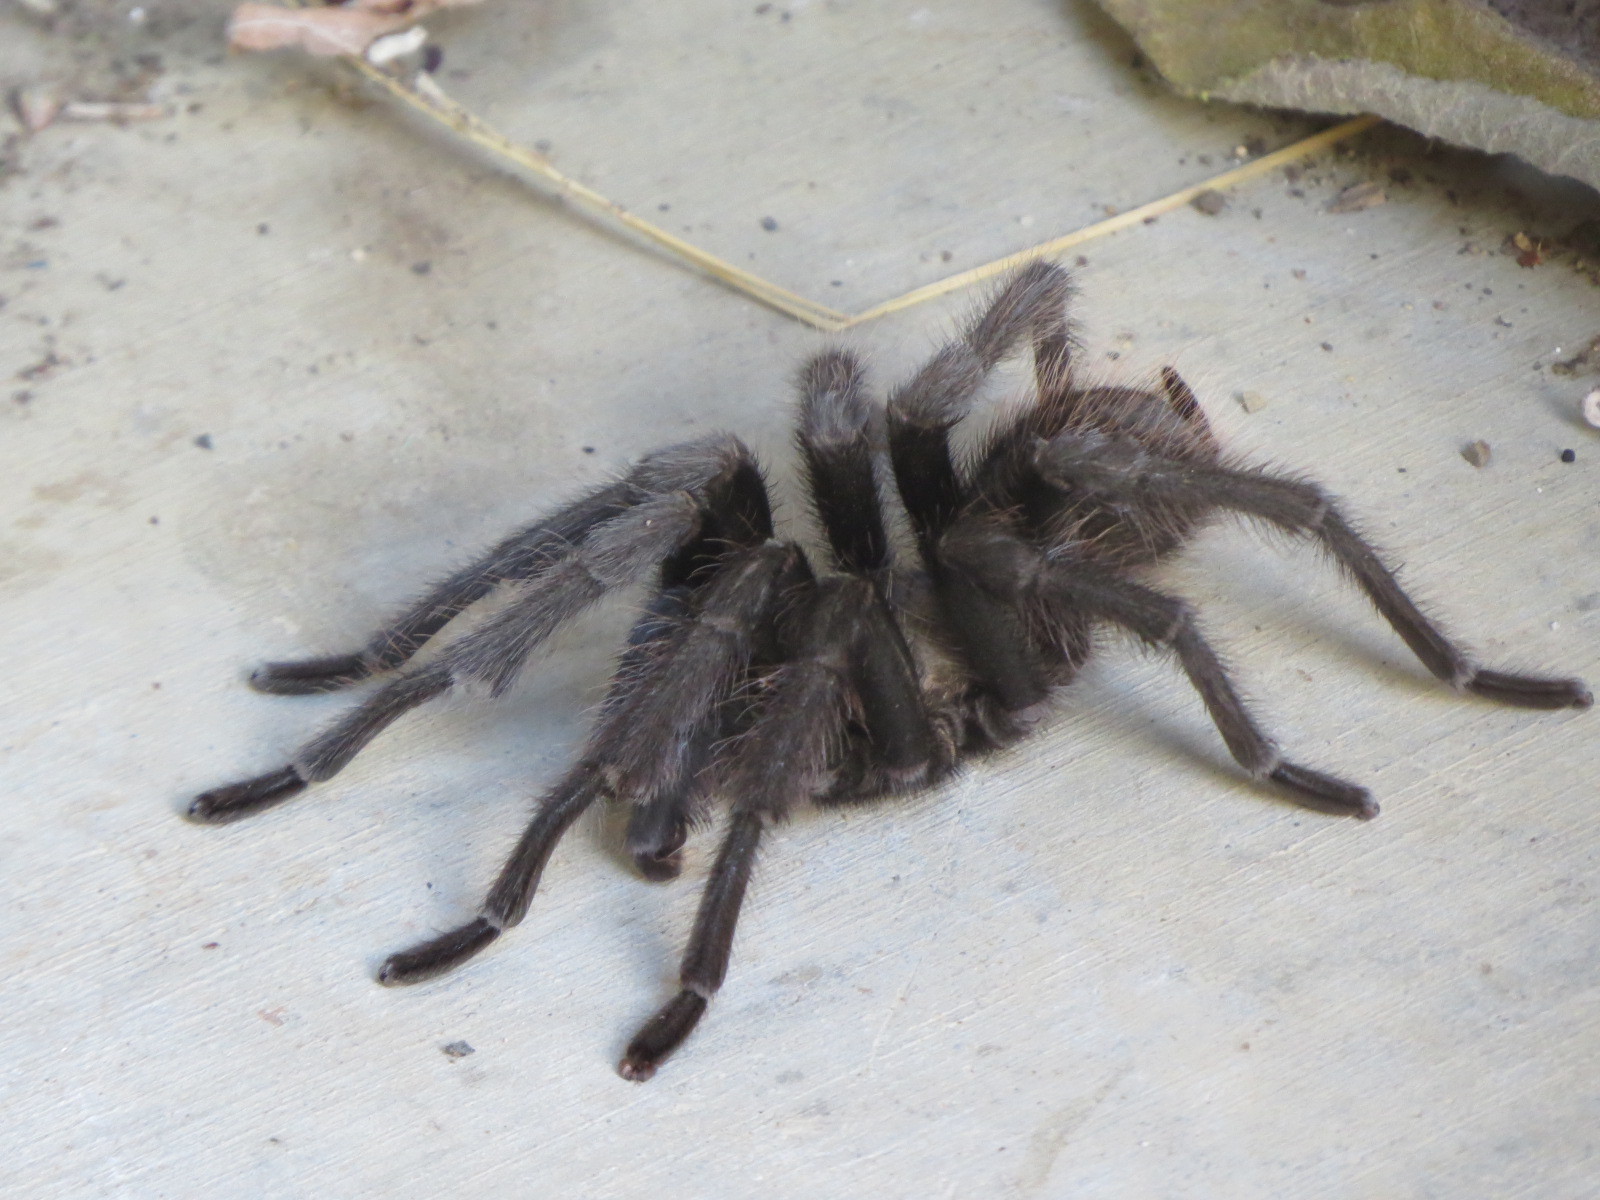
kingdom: Animalia
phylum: Arthropoda
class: Arachnida
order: Araneae
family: Theraphosidae
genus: Aphonopelma
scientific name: Aphonopelma iodius
